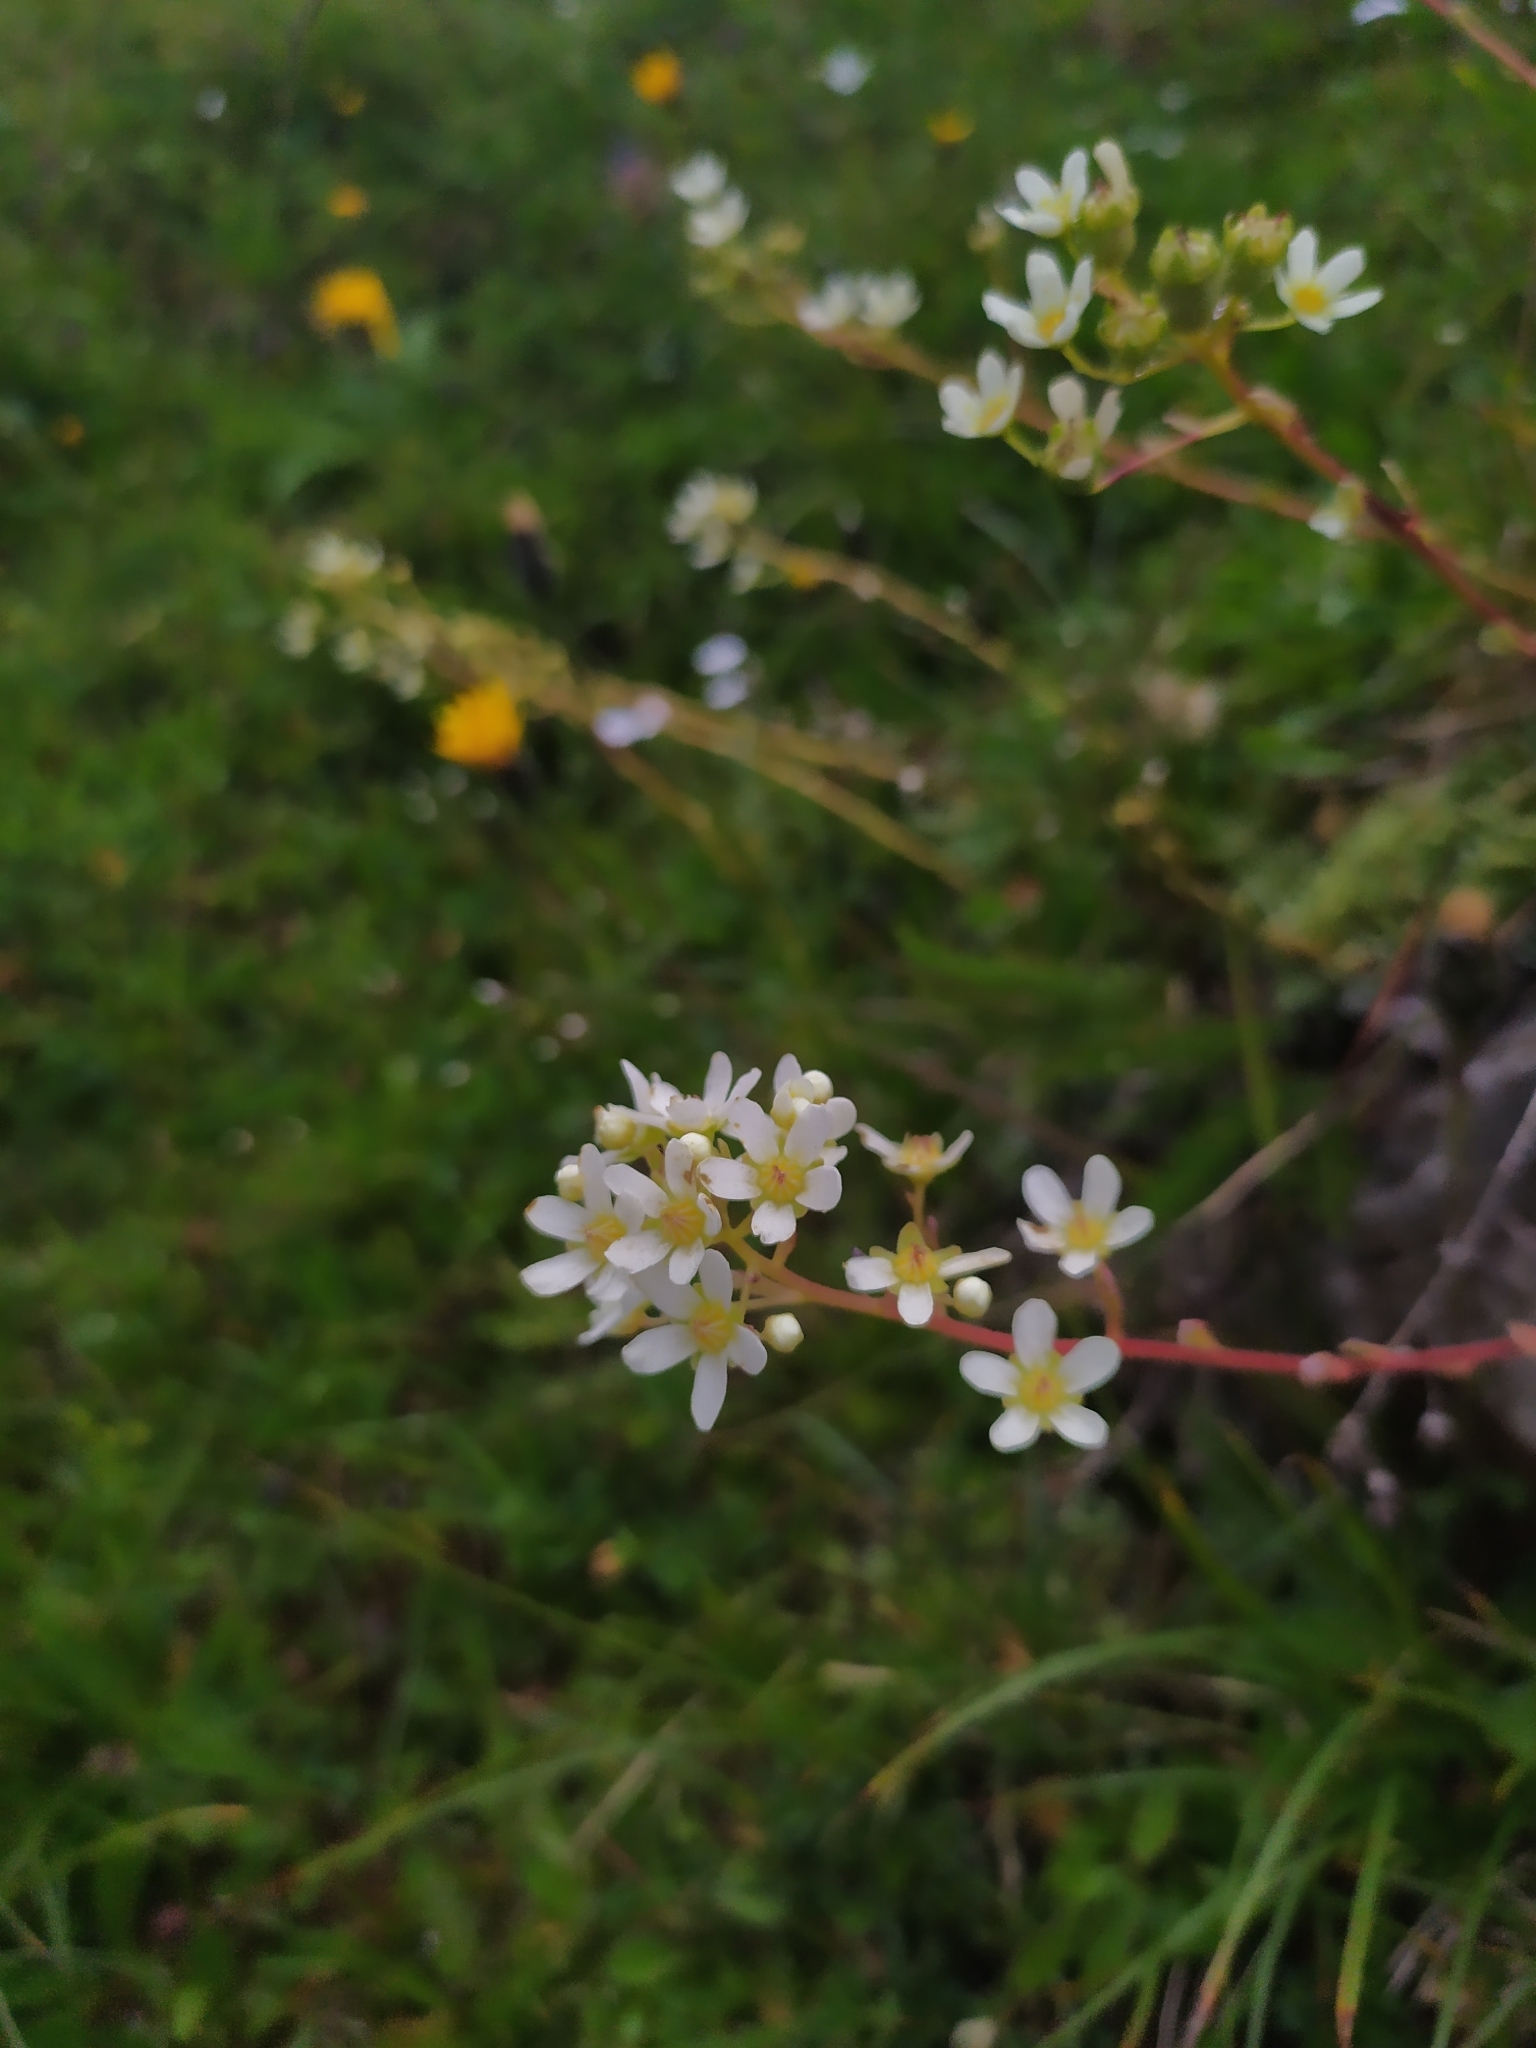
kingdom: Plantae
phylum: Tracheophyta
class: Magnoliopsida
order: Saxifragales
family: Saxifragaceae
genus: Saxifraga
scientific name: Saxifraga paniculata
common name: Livelong saxifrage
